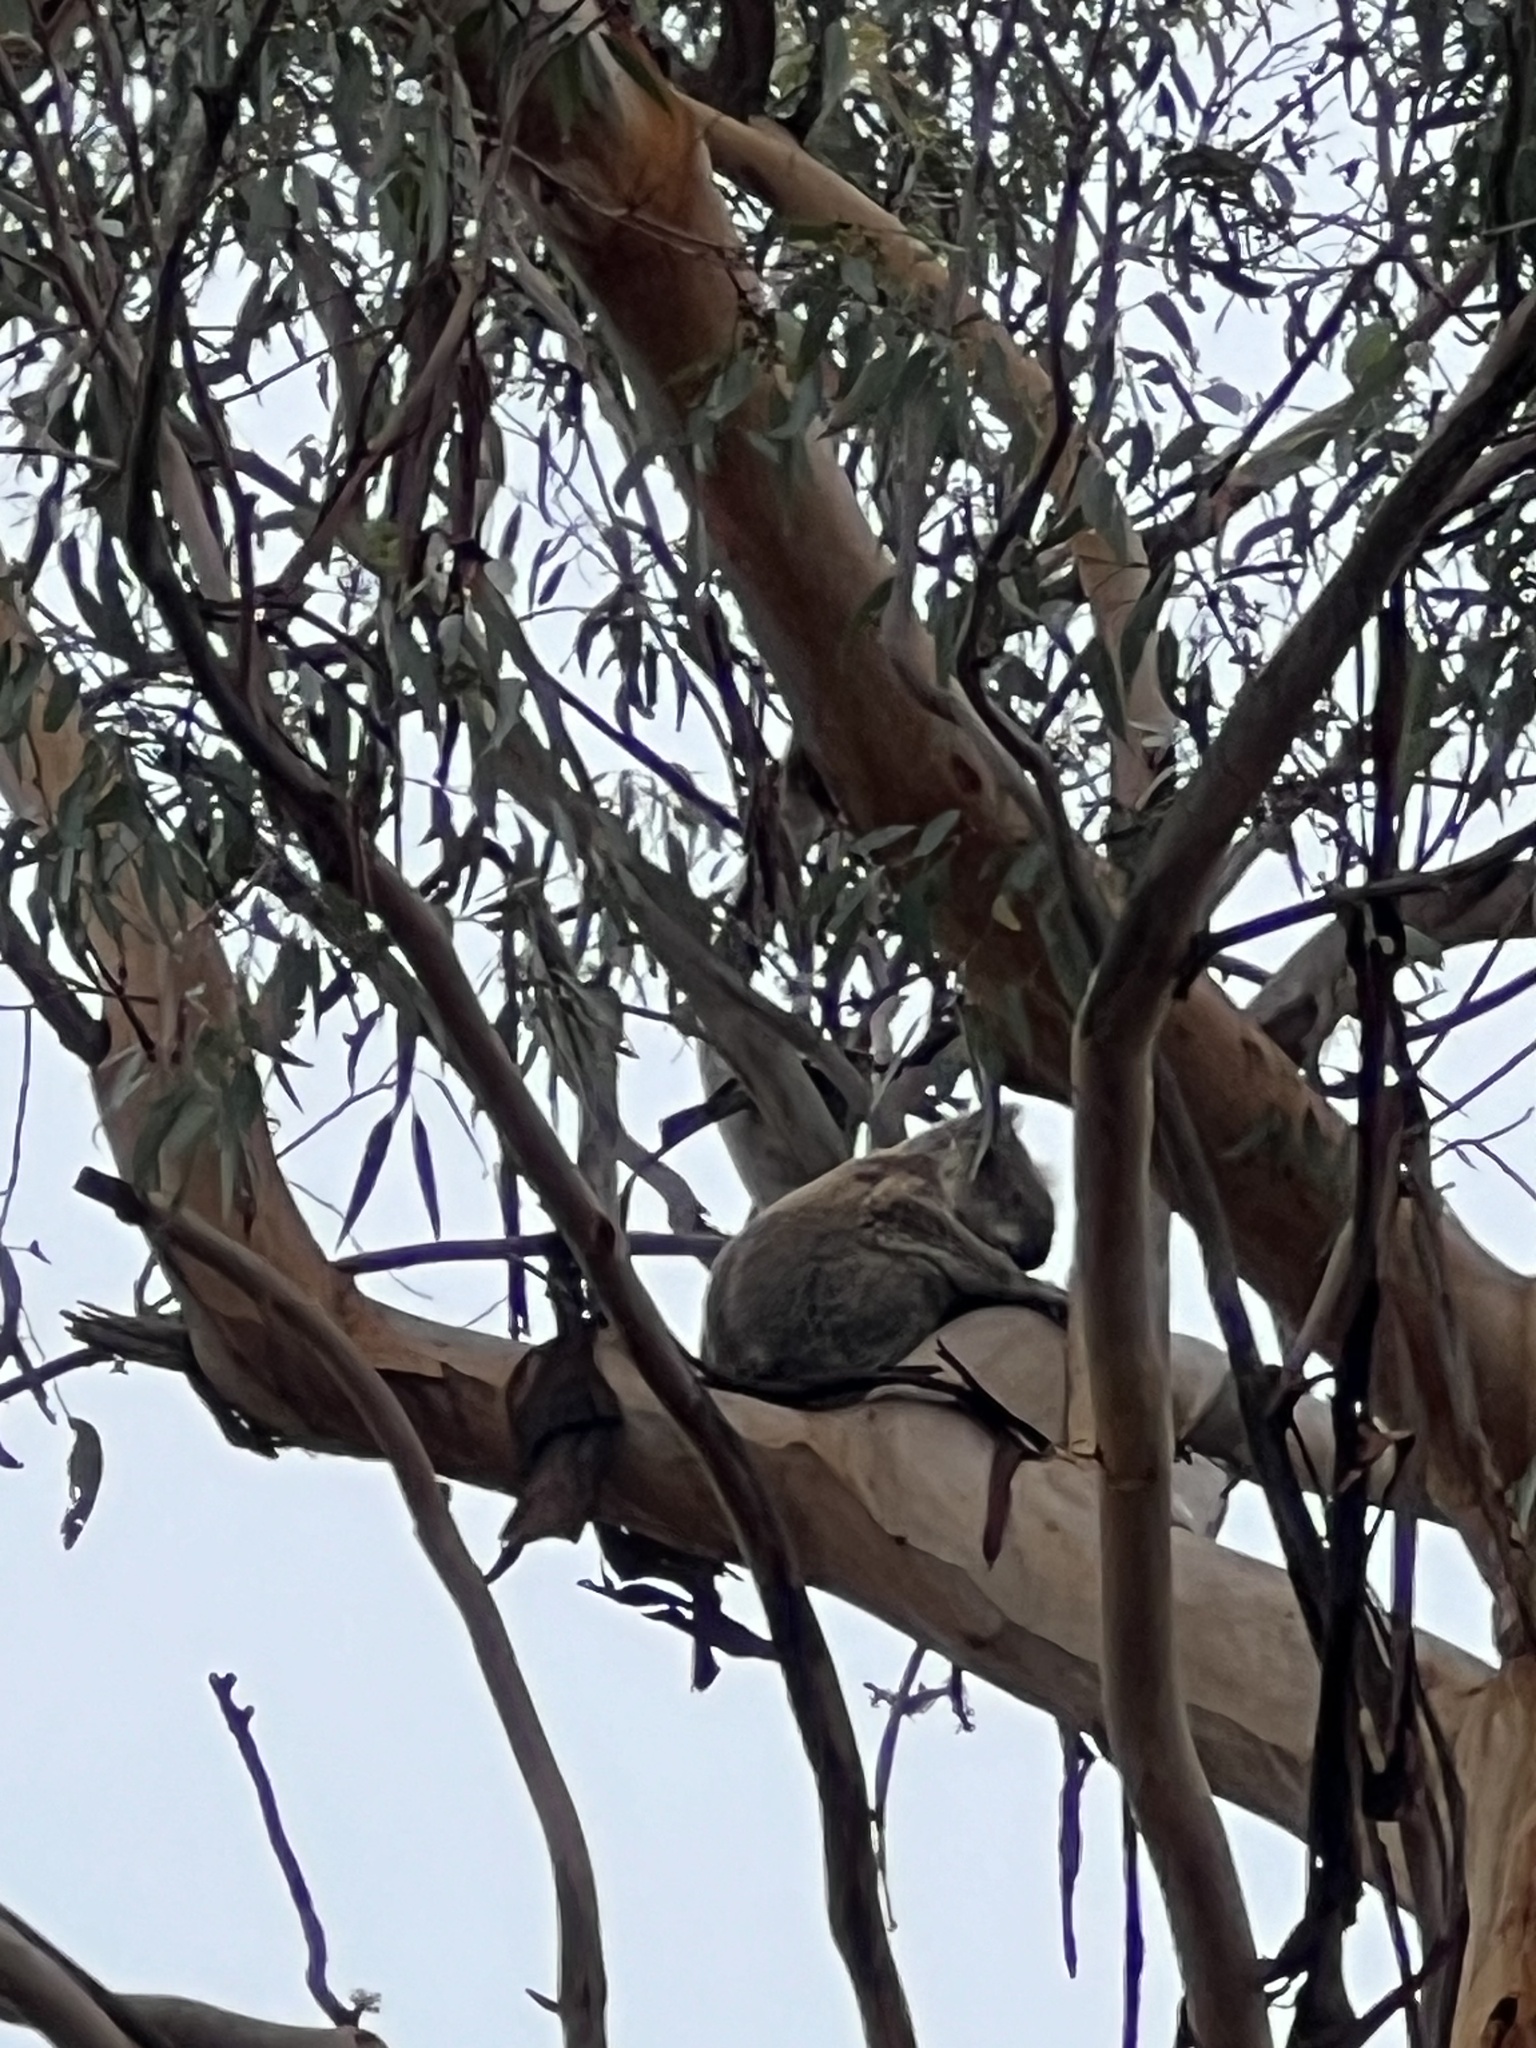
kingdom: Animalia
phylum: Chordata
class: Mammalia
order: Diprotodontia
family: Phascolarctidae
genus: Phascolarctos
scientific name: Phascolarctos cinereus
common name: Koala
